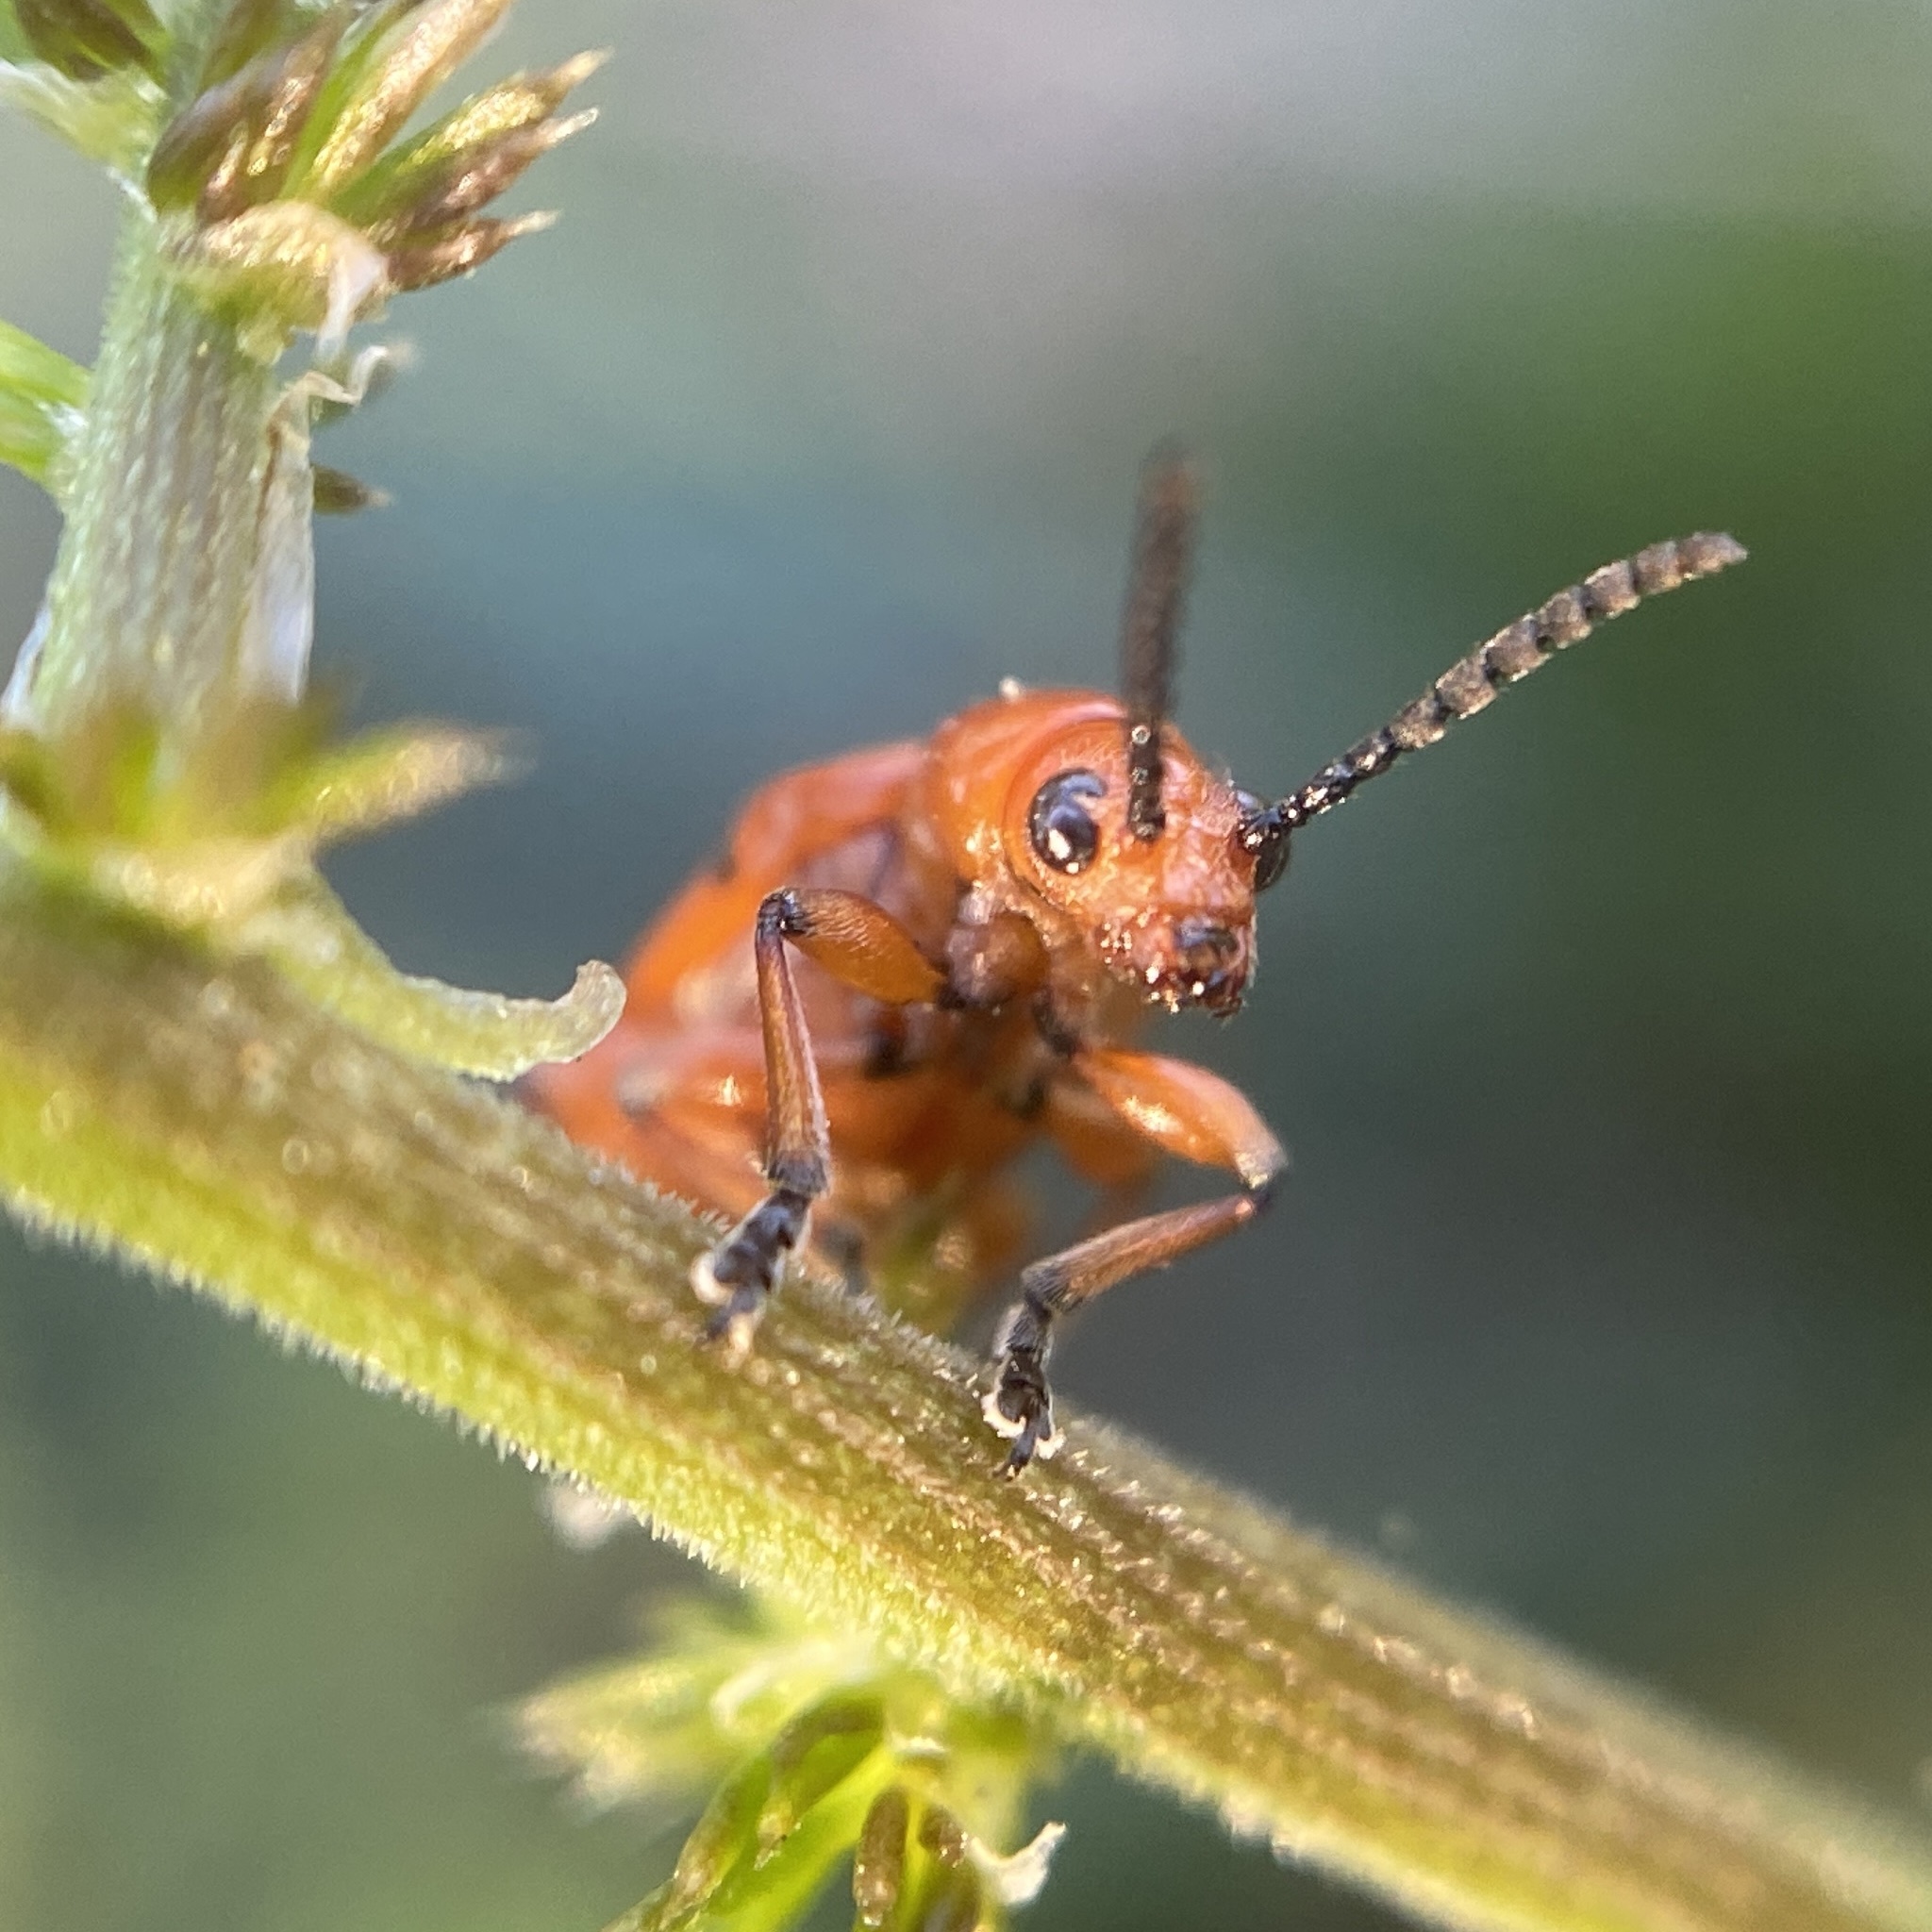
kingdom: Animalia
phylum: Arthropoda
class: Insecta
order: Coleoptera
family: Chrysomelidae
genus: Crioceris
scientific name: Crioceris duodecimpunctata
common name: Twelve-spotted asparagus beetle
